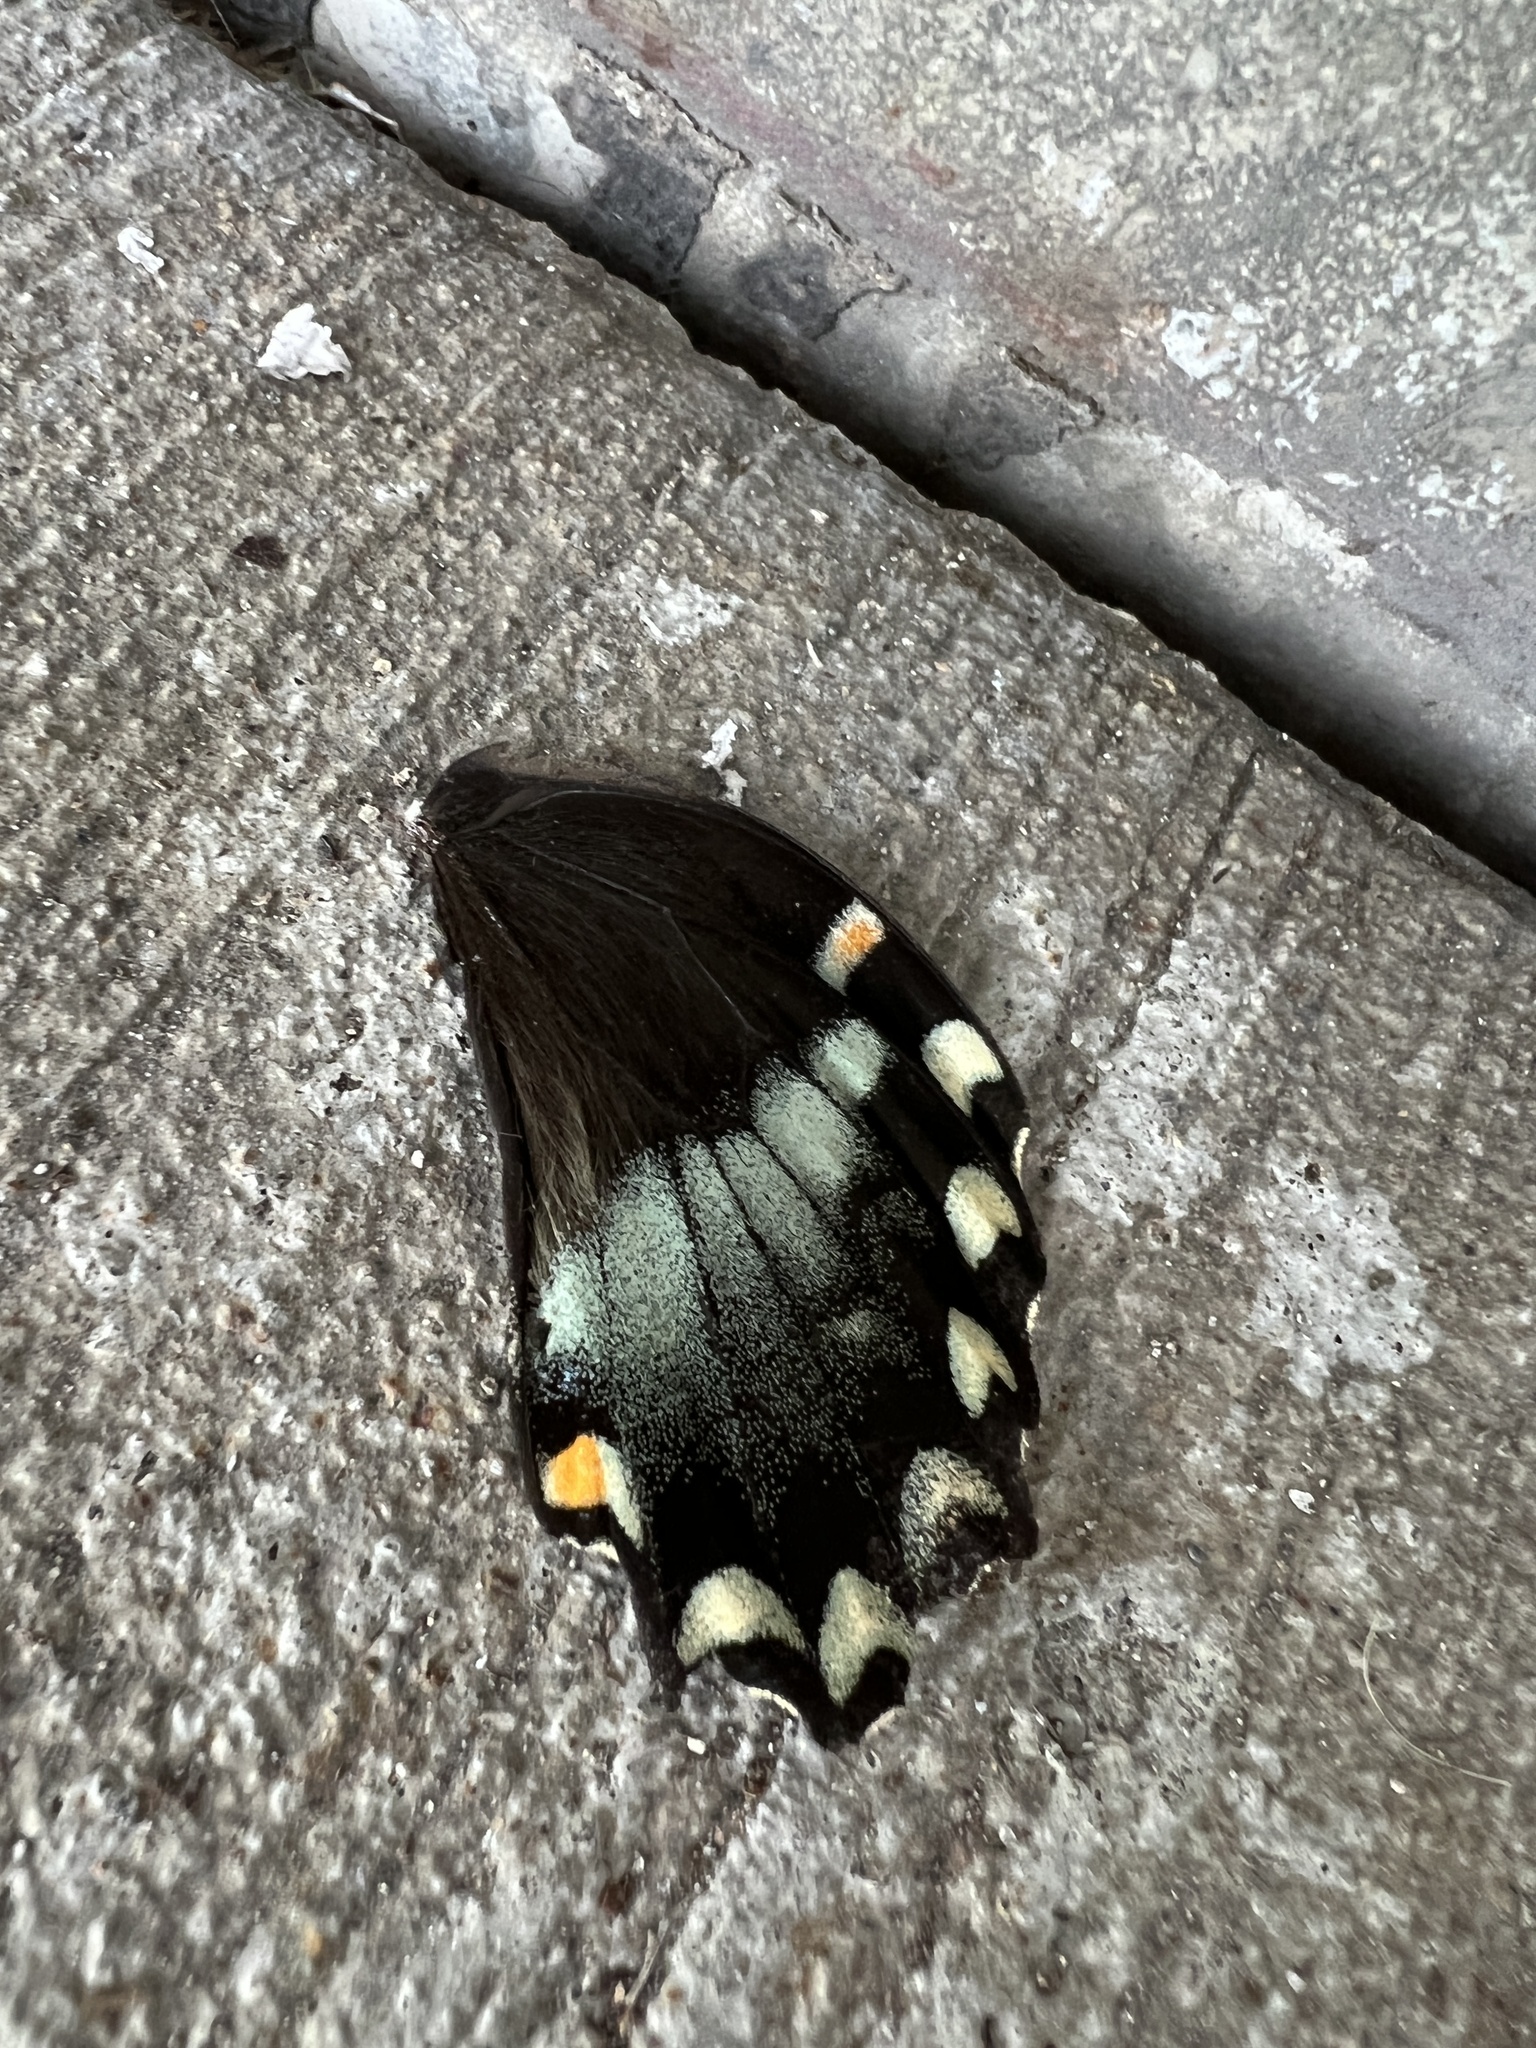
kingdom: Animalia
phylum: Arthropoda
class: Insecta
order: Lepidoptera
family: Papilionidae
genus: Papilio
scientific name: Papilio troilus
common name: Spicebush swallowtail
